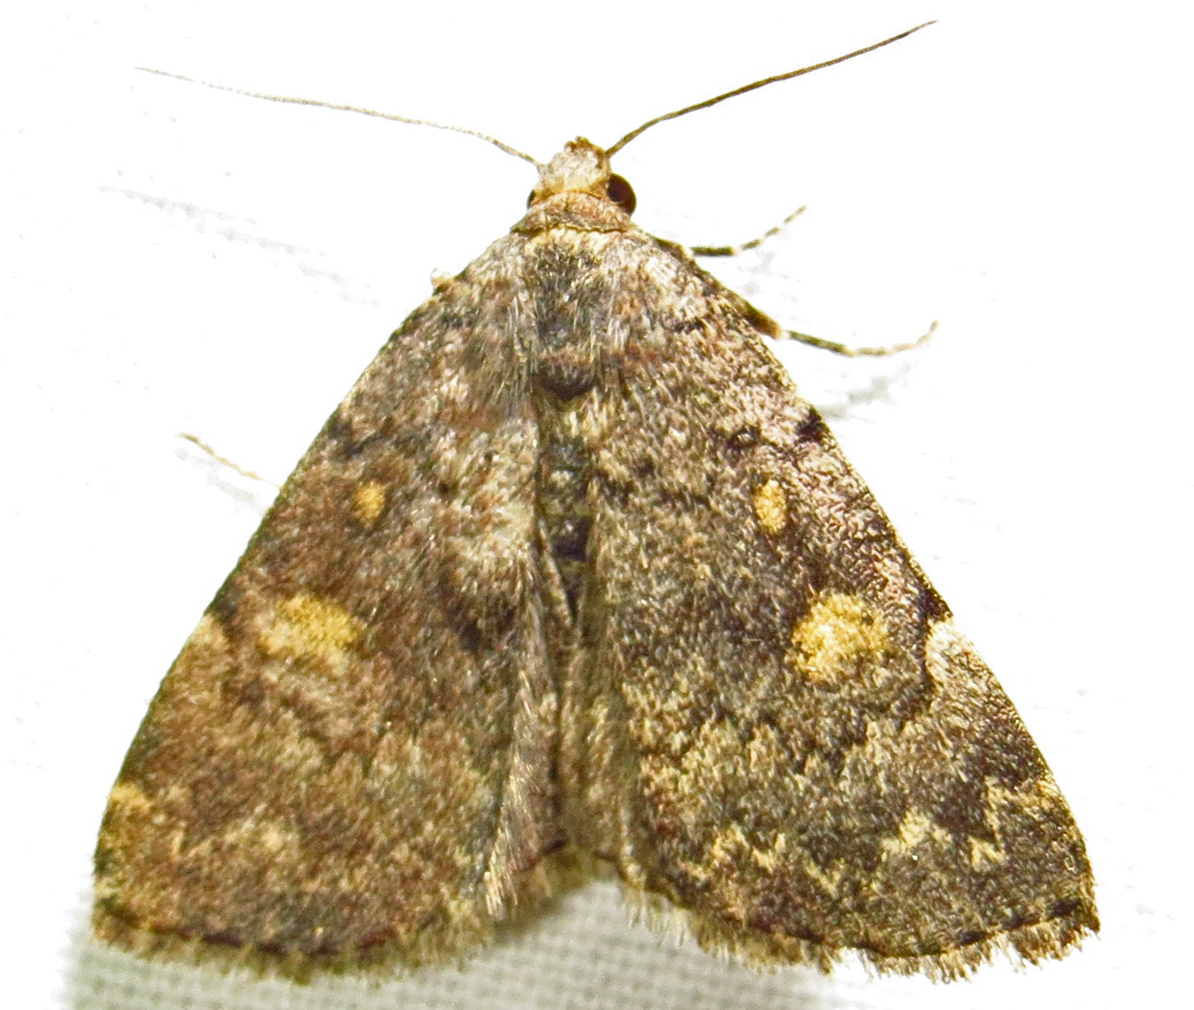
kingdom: Animalia
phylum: Arthropoda
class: Insecta
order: Lepidoptera
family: Erebidae
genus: Idia
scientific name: Idia aemula
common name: Common idia moth
